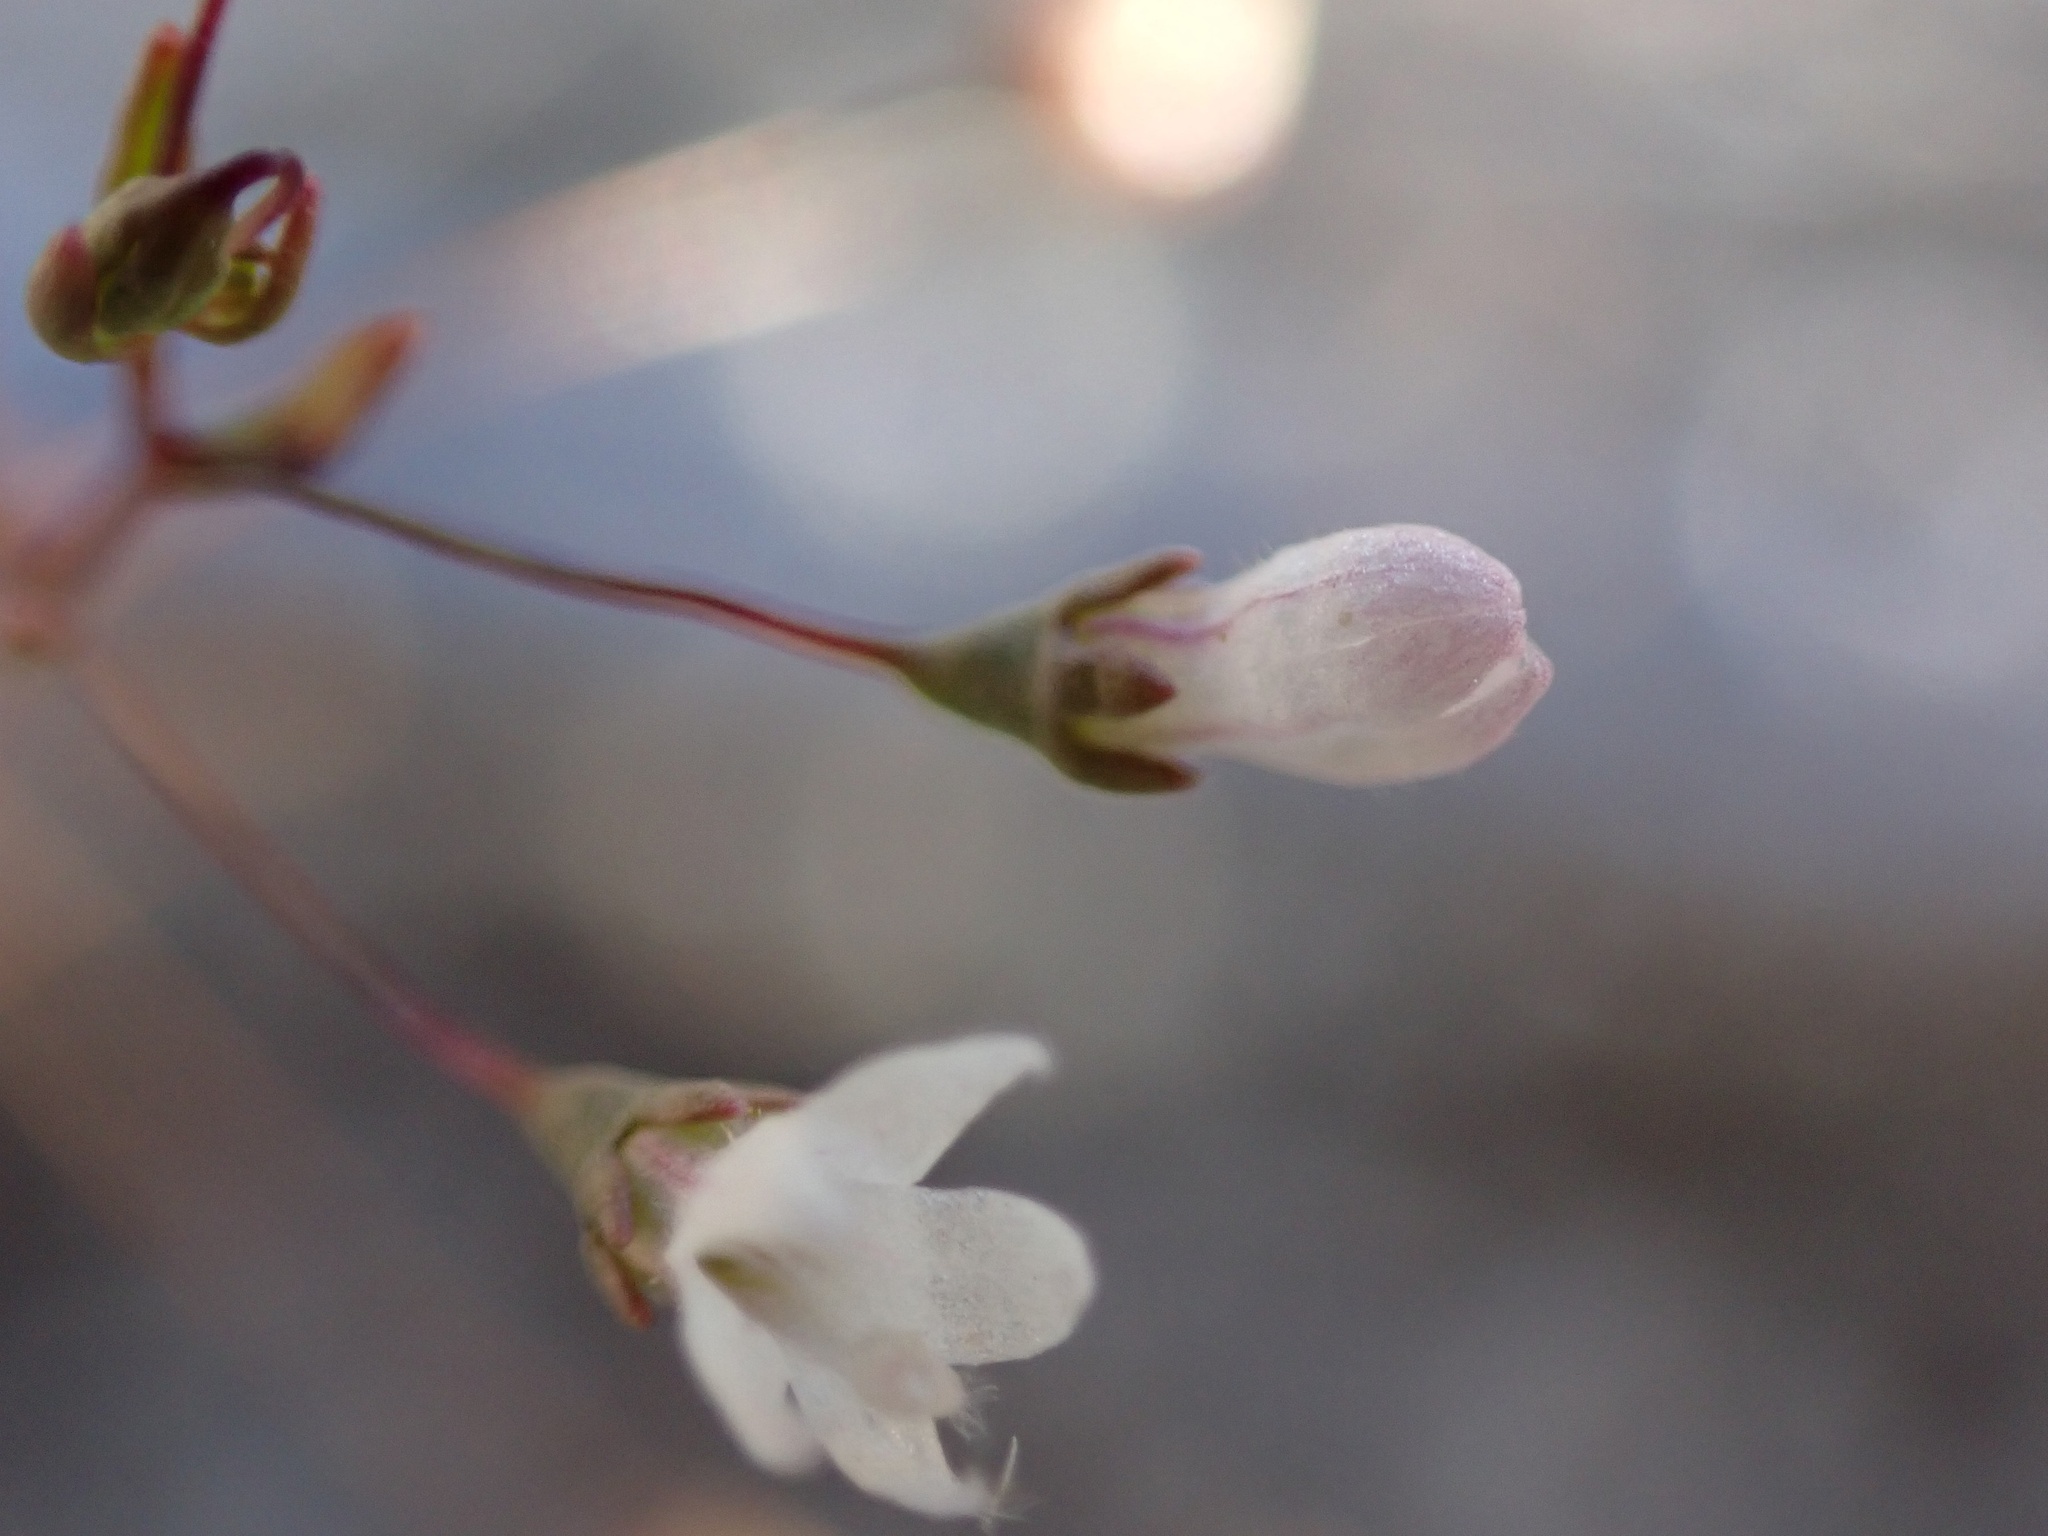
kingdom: Plantae
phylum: Tracheophyta
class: Magnoliopsida
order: Asterales
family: Campanulaceae
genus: Nemacladus
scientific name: Nemacladus ramosissimus
